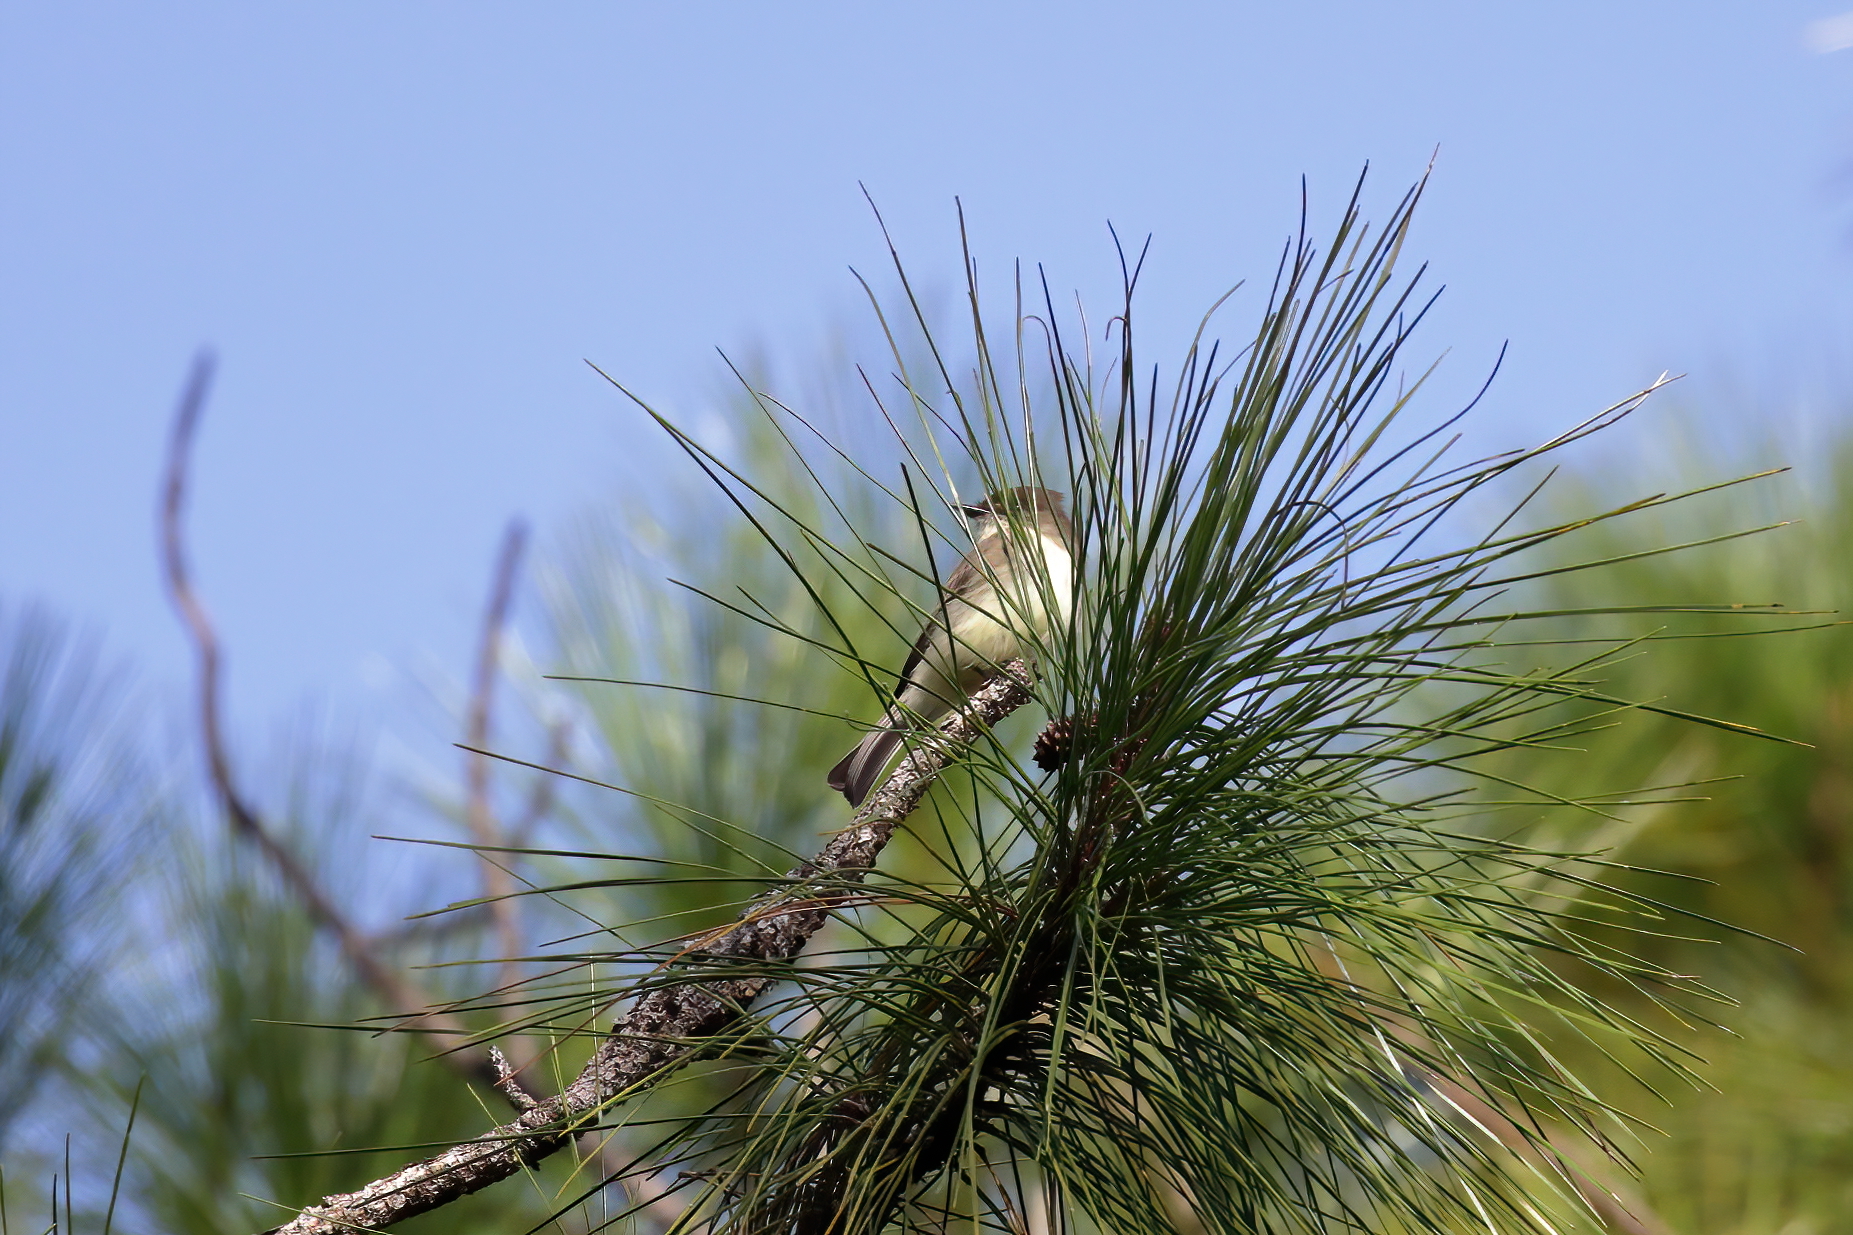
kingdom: Animalia
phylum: Chordata
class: Aves
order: Passeriformes
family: Tyrannidae
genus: Sayornis
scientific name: Sayornis phoebe
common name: Eastern phoebe
